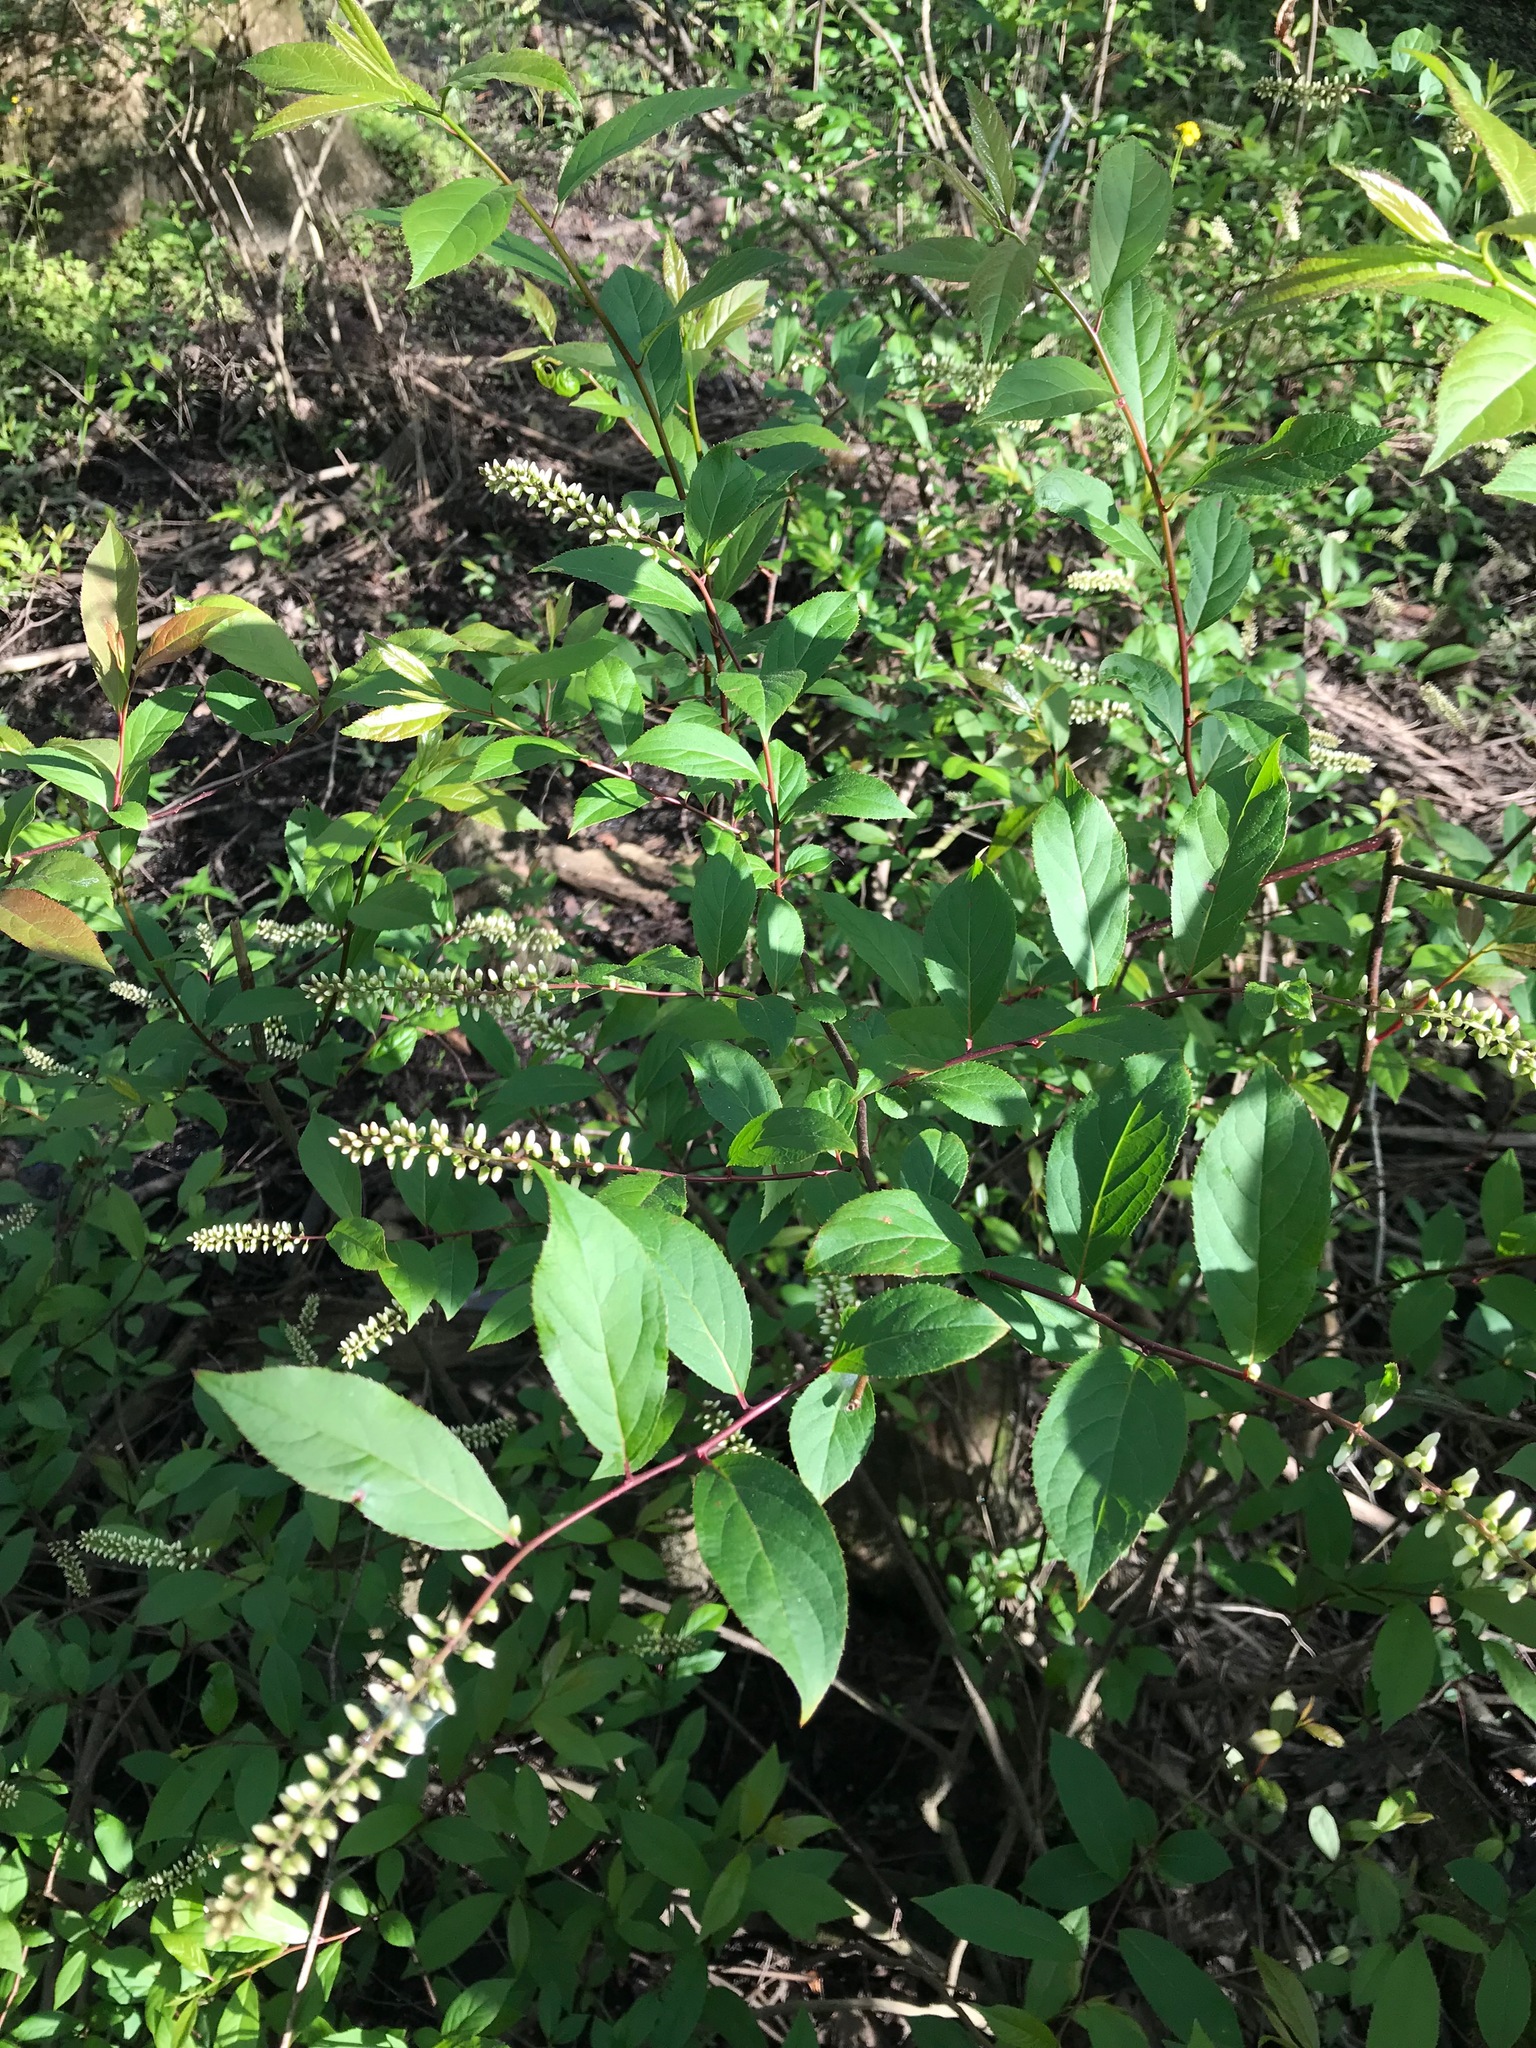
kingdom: Plantae
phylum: Tracheophyta
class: Magnoliopsida
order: Saxifragales
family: Iteaceae
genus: Itea
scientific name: Itea virginica
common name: Sweetspire
